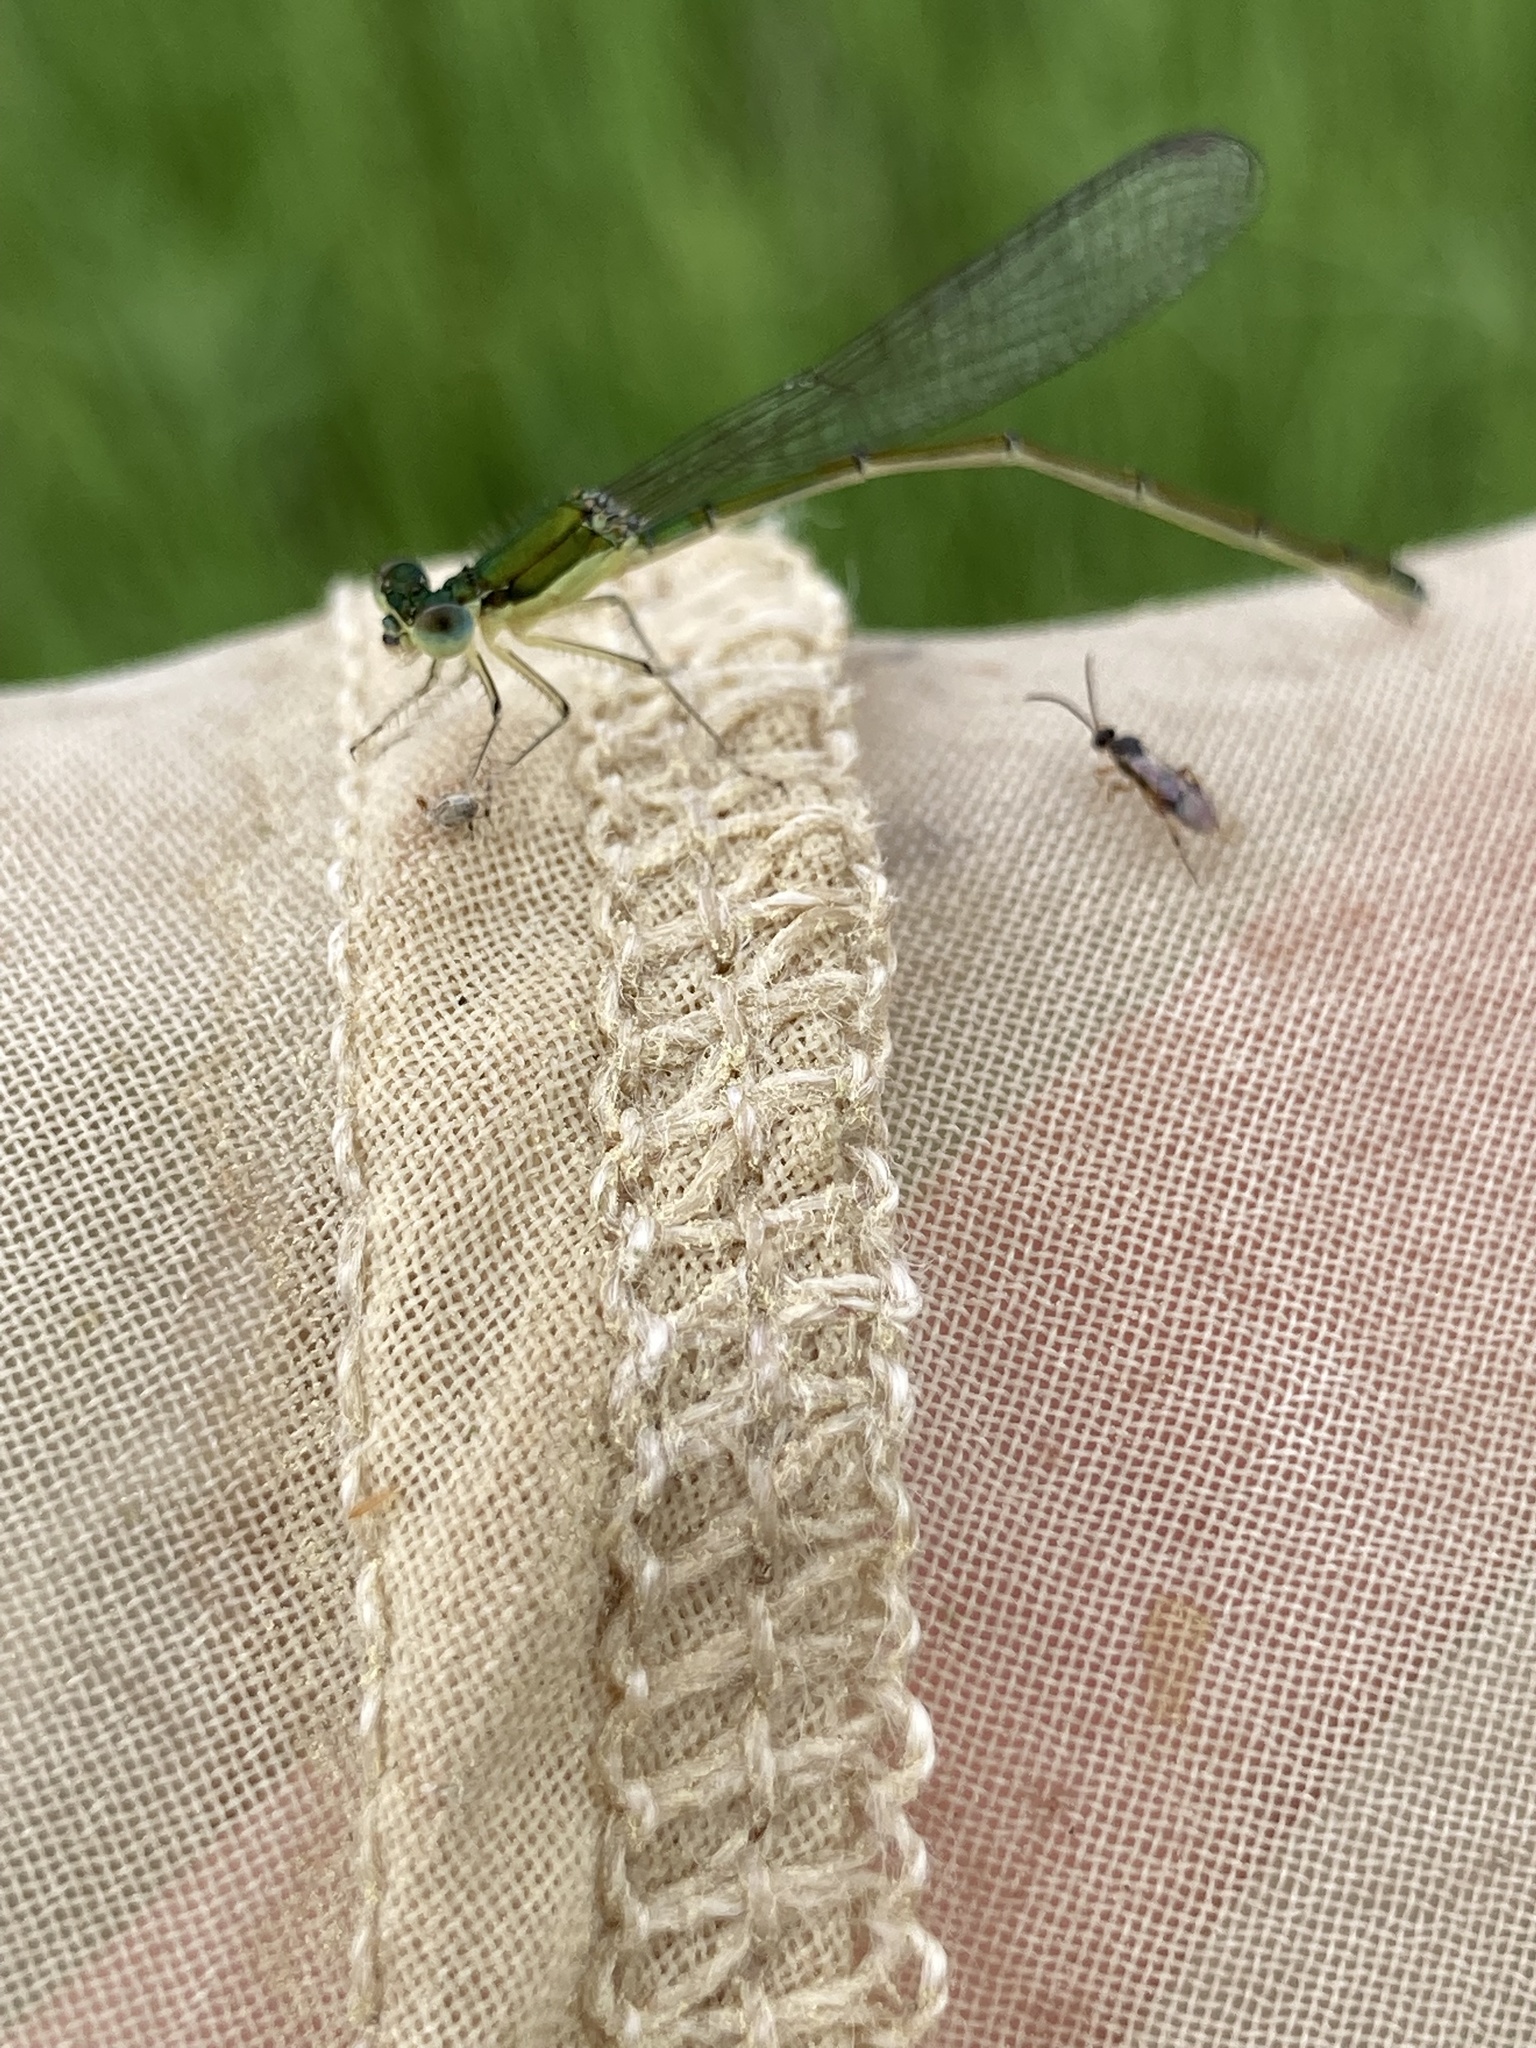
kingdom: Animalia
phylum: Arthropoda
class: Insecta
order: Odonata
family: Coenagrionidae
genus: Nehalennia
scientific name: Nehalennia irene
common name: Sedge sprite
